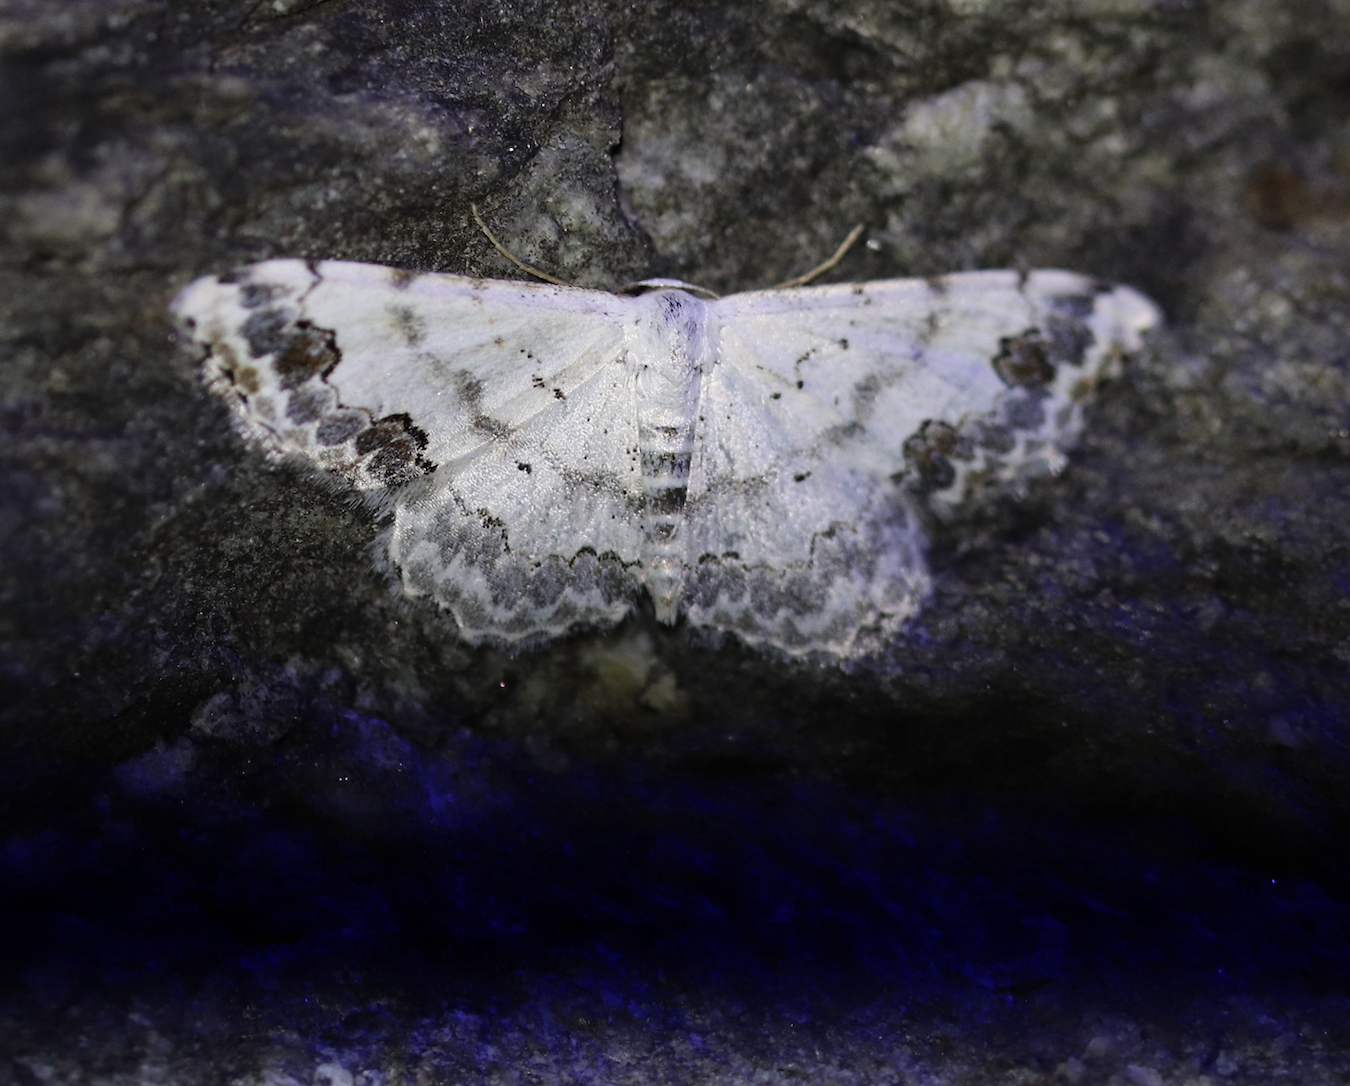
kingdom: Animalia
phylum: Arthropoda
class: Insecta
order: Lepidoptera
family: Geometridae
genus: Scopula
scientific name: Scopula decorata
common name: Middle lace border
